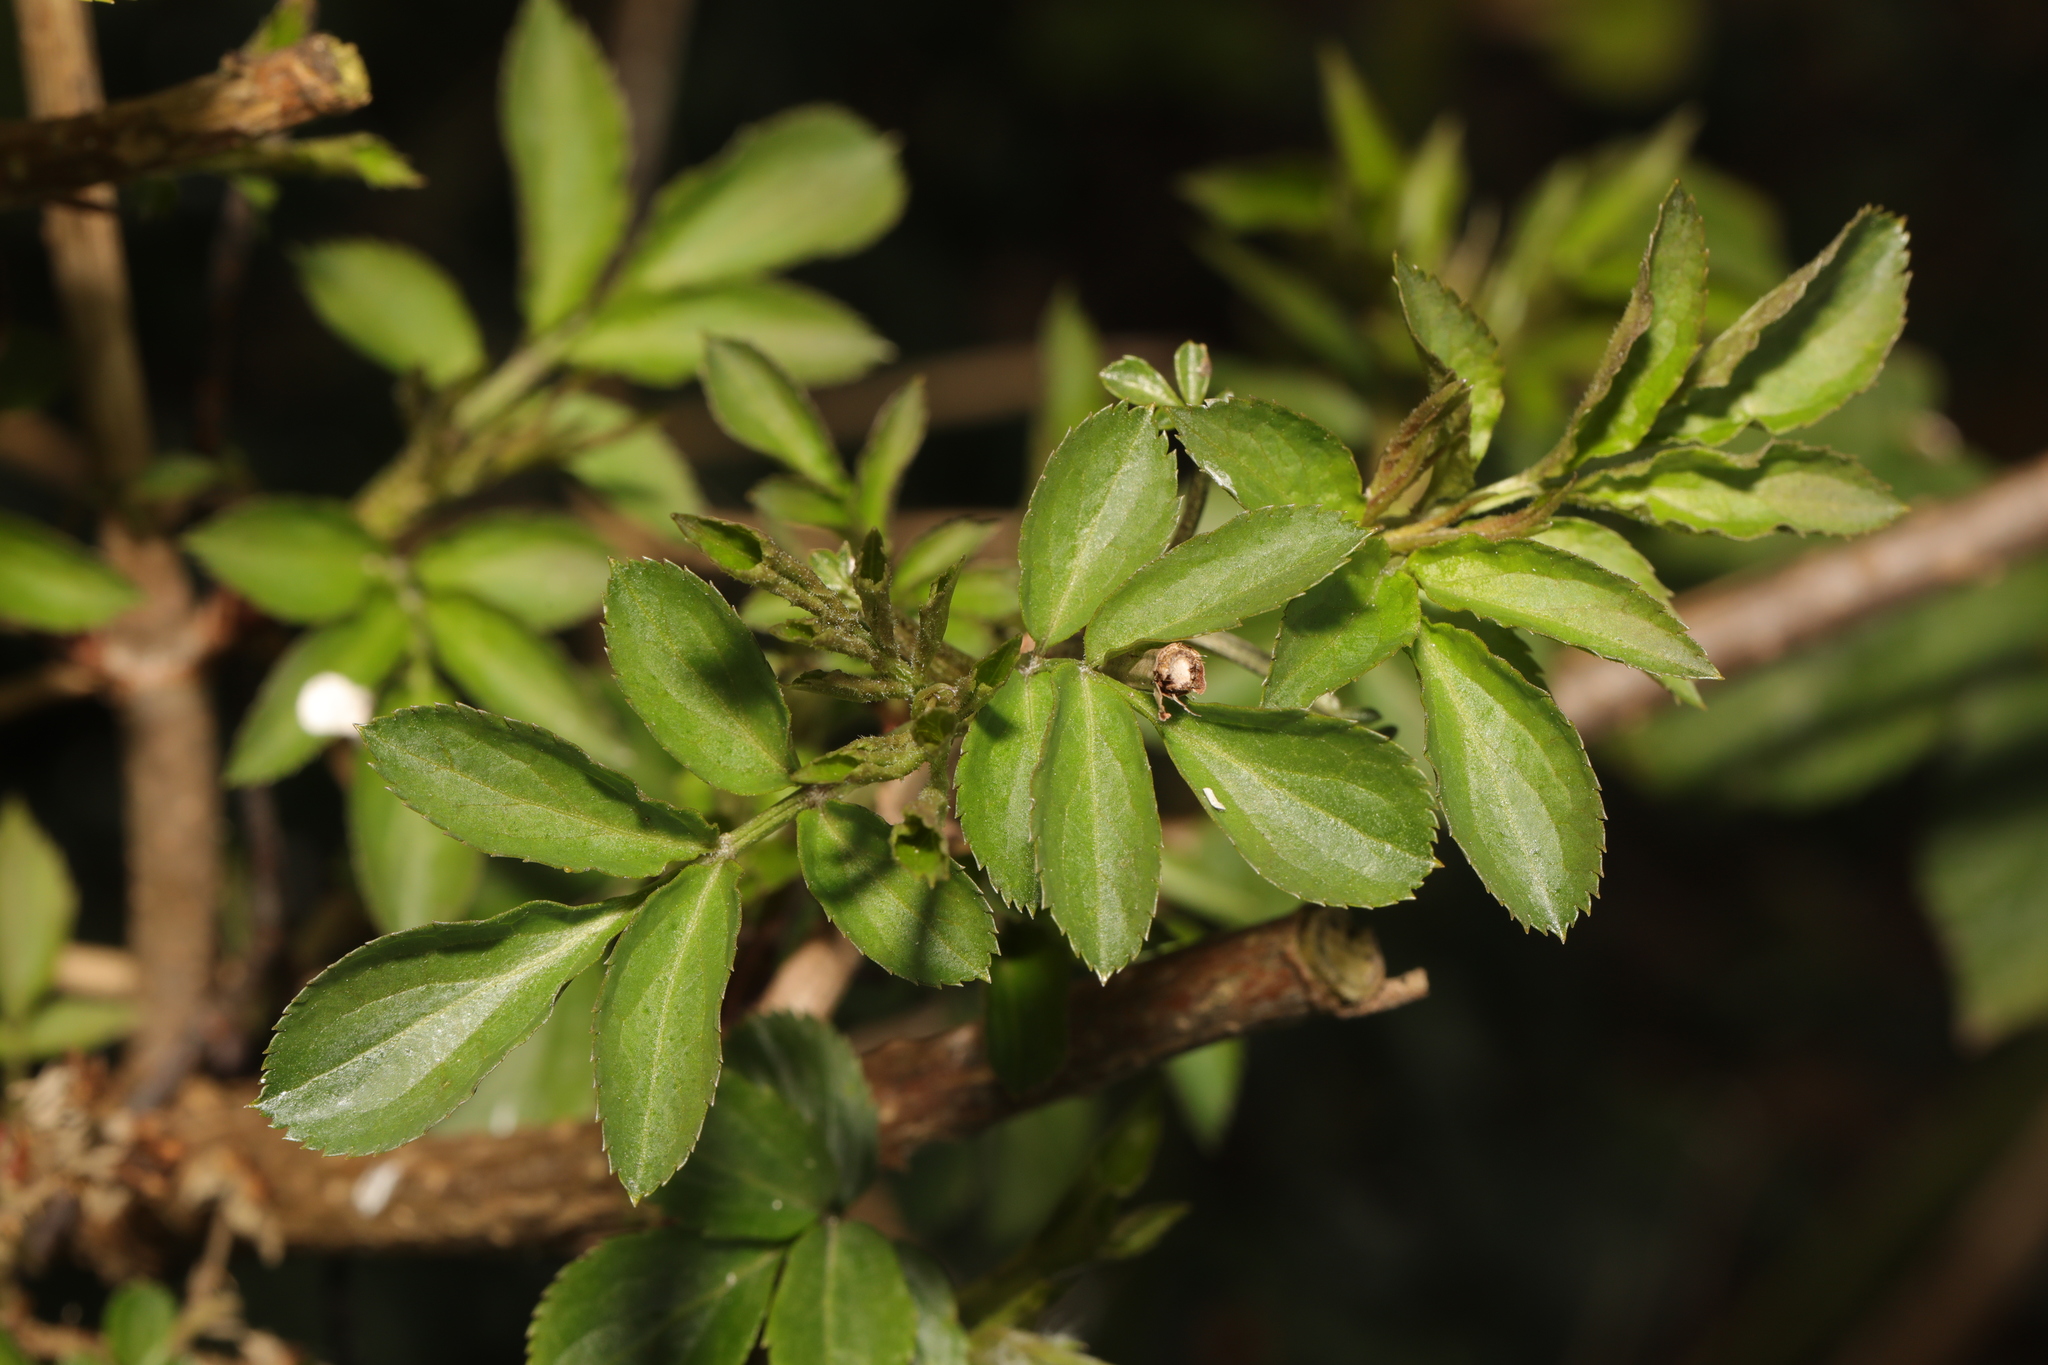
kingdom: Plantae
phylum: Tracheophyta
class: Magnoliopsida
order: Dipsacales
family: Viburnaceae
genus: Sambucus
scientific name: Sambucus nigra
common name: Elder
